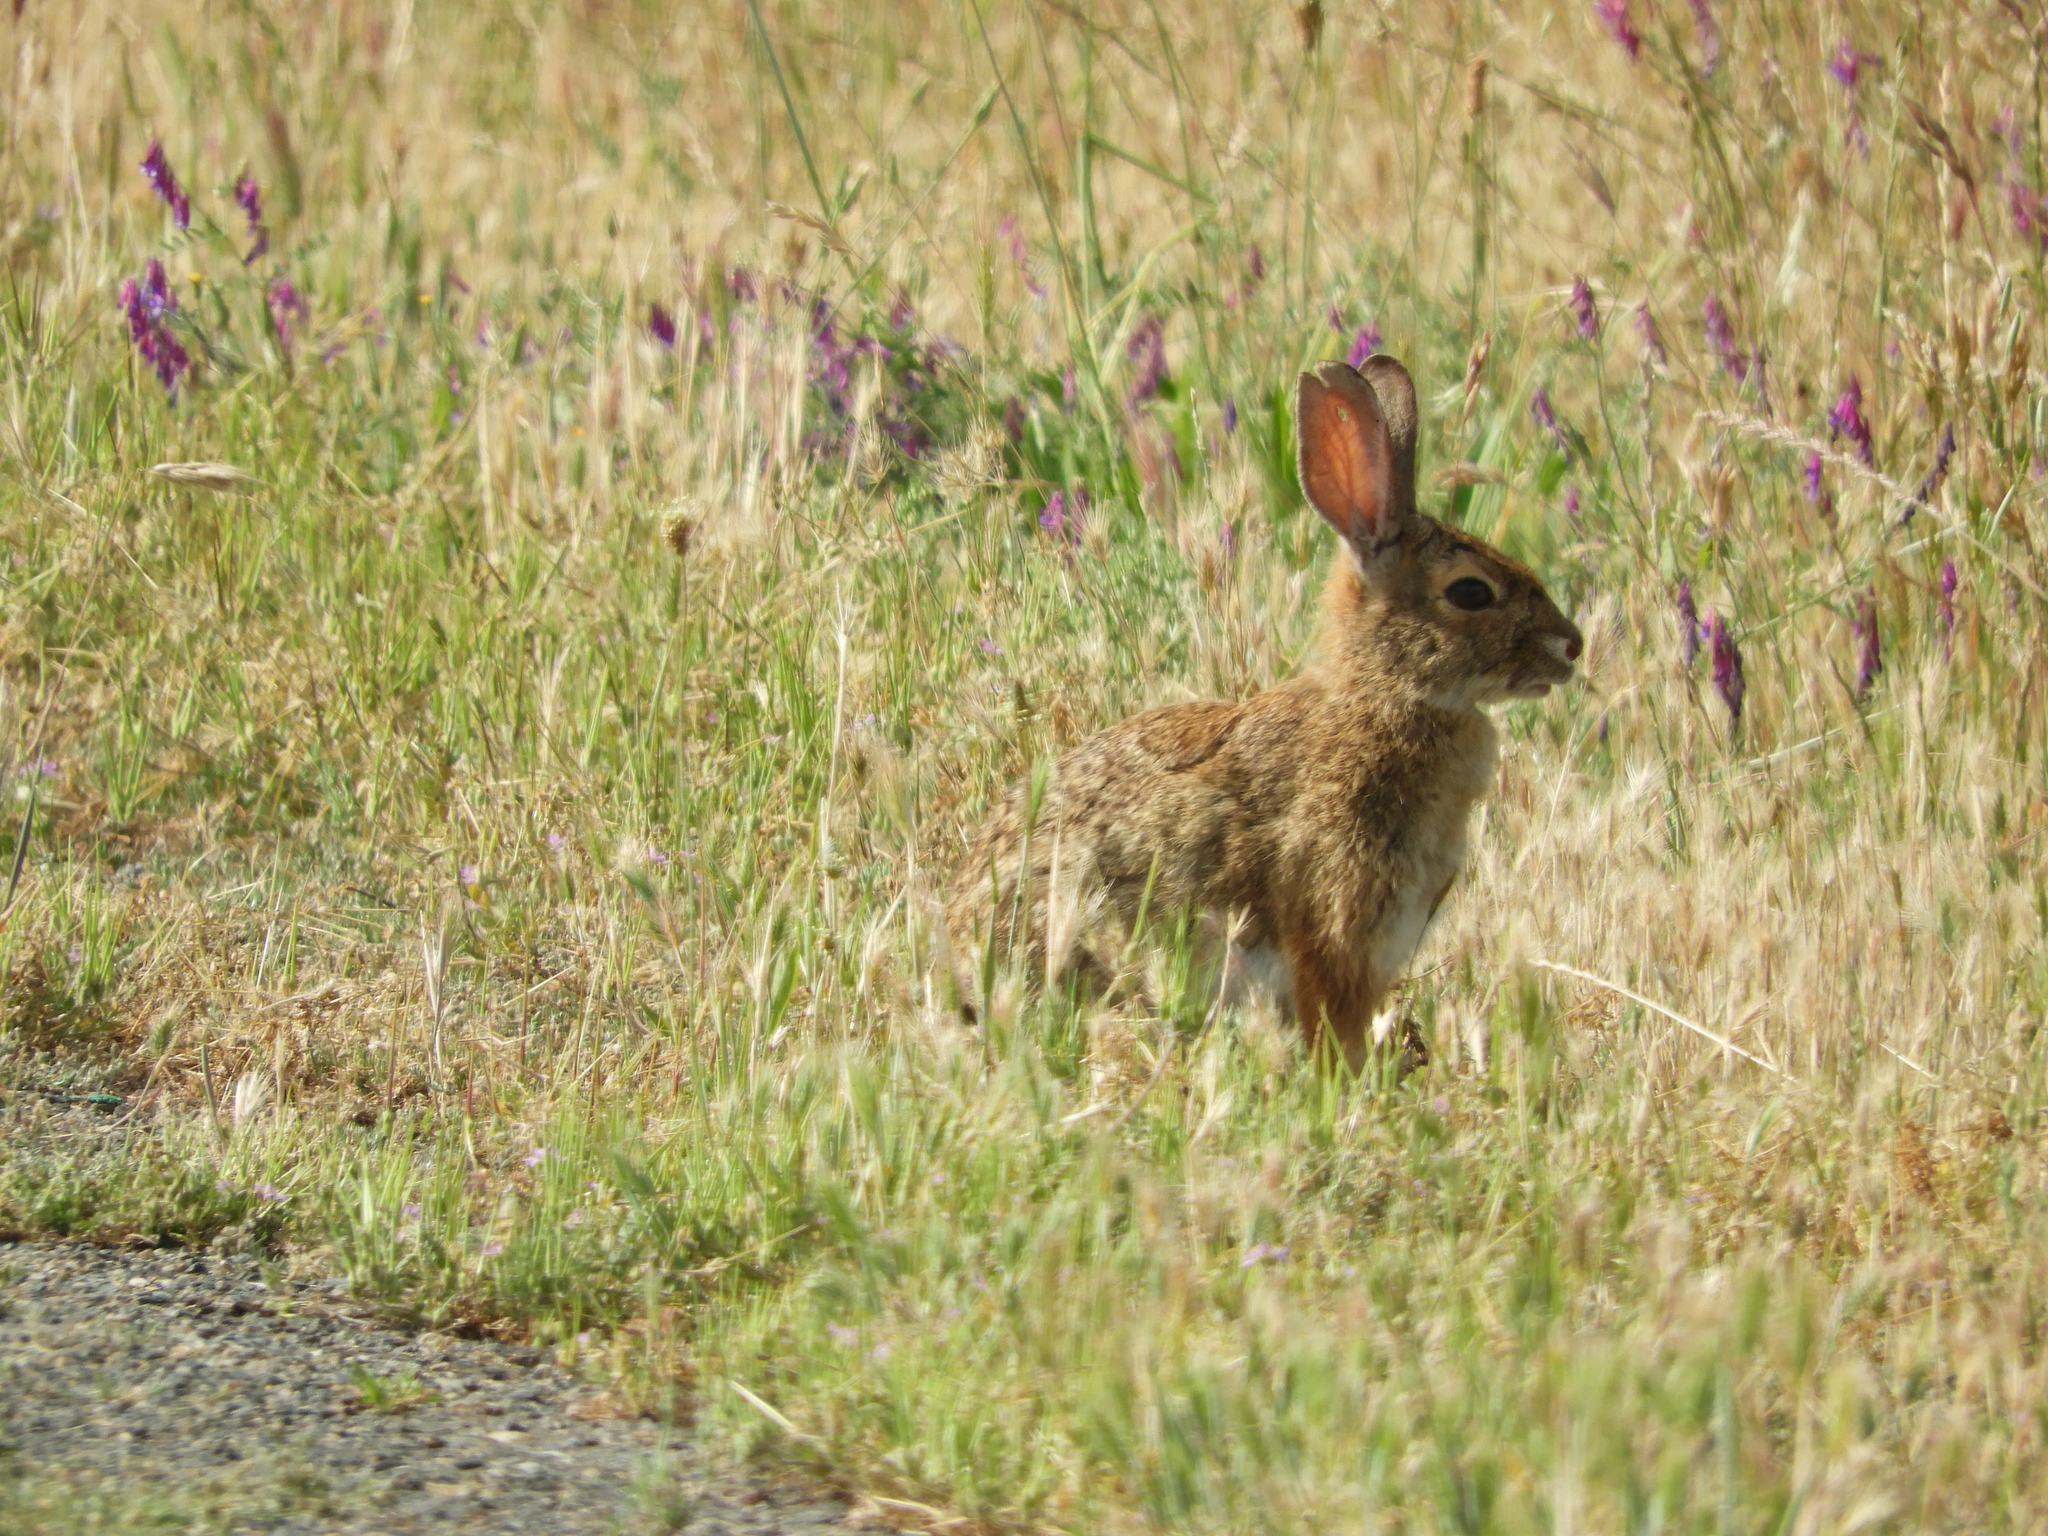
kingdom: Animalia
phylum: Chordata
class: Mammalia
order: Lagomorpha
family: Leporidae
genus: Sylvilagus
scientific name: Sylvilagus audubonii
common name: Desert cottontail
